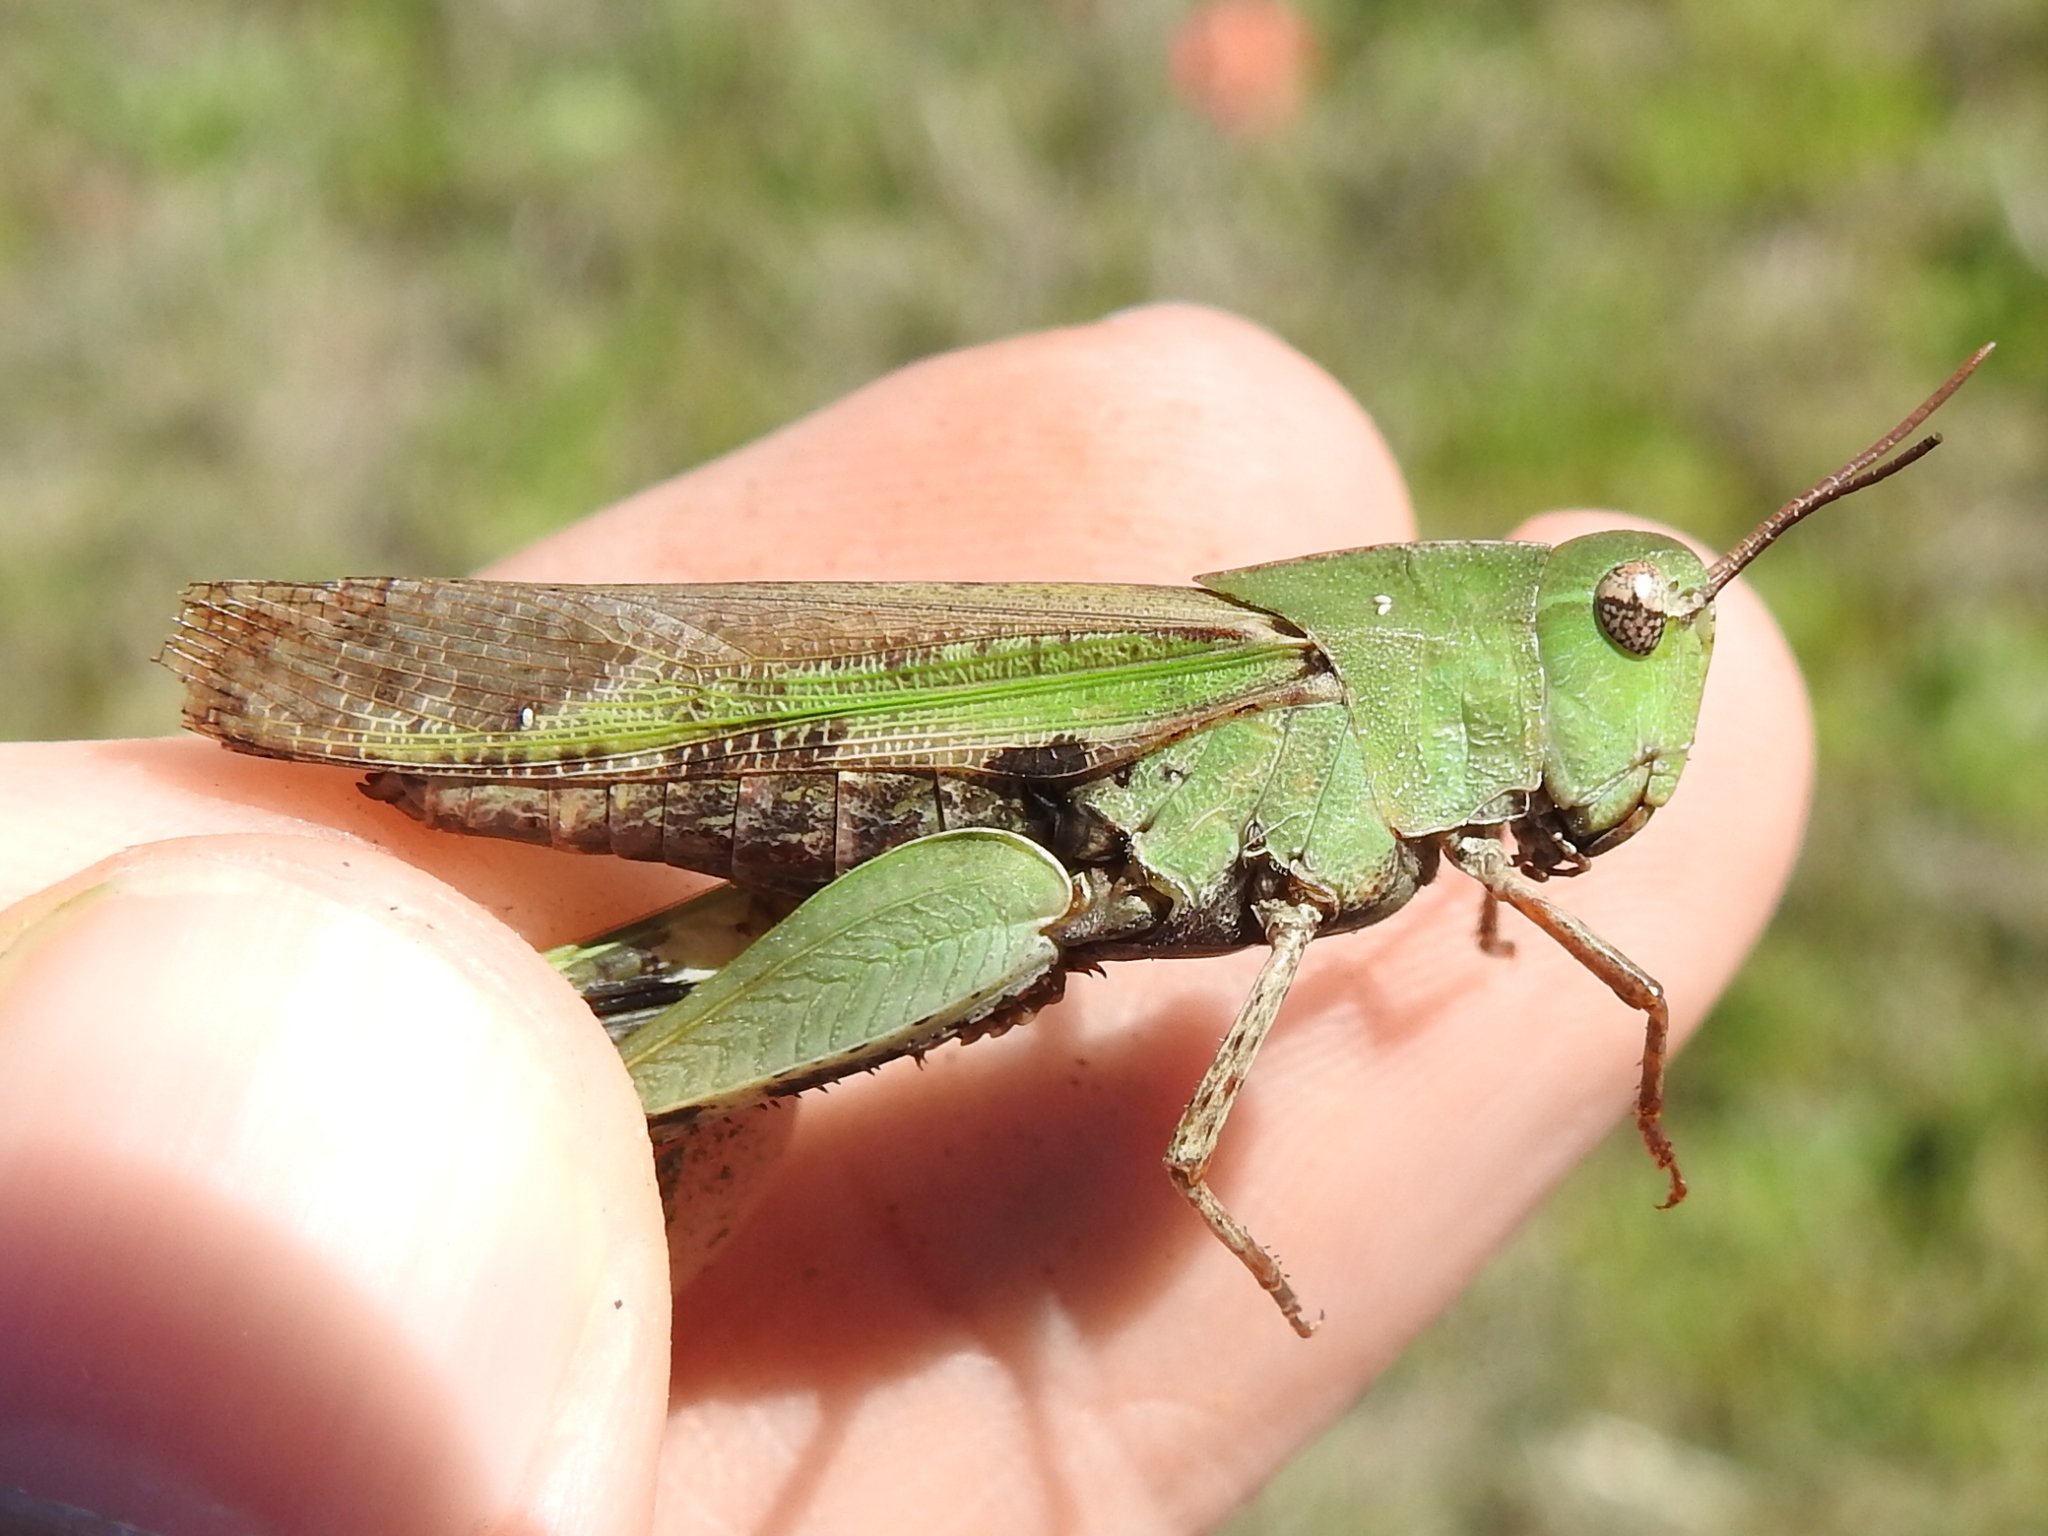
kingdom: Animalia
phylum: Arthropoda
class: Insecta
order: Orthoptera
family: Acrididae
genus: Chortophaga
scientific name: Chortophaga viridifasciata
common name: Green-striped grasshopper
